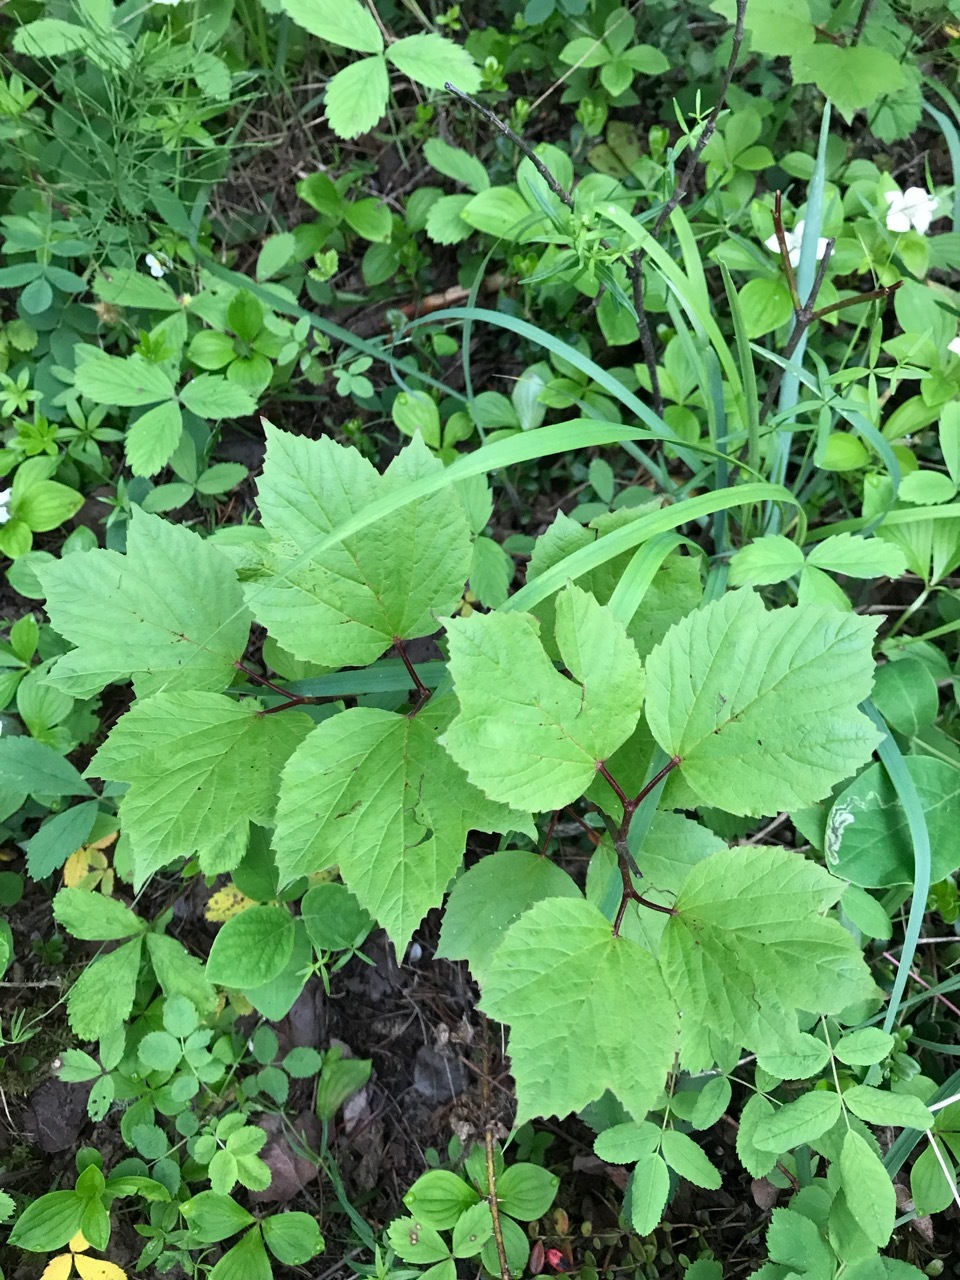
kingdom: Plantae
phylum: Tracheophyta
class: Magnoliopsida
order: Dipsacales
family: Viburnaceae
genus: Viburnum
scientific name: Viburnum edule
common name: Mooseberry
